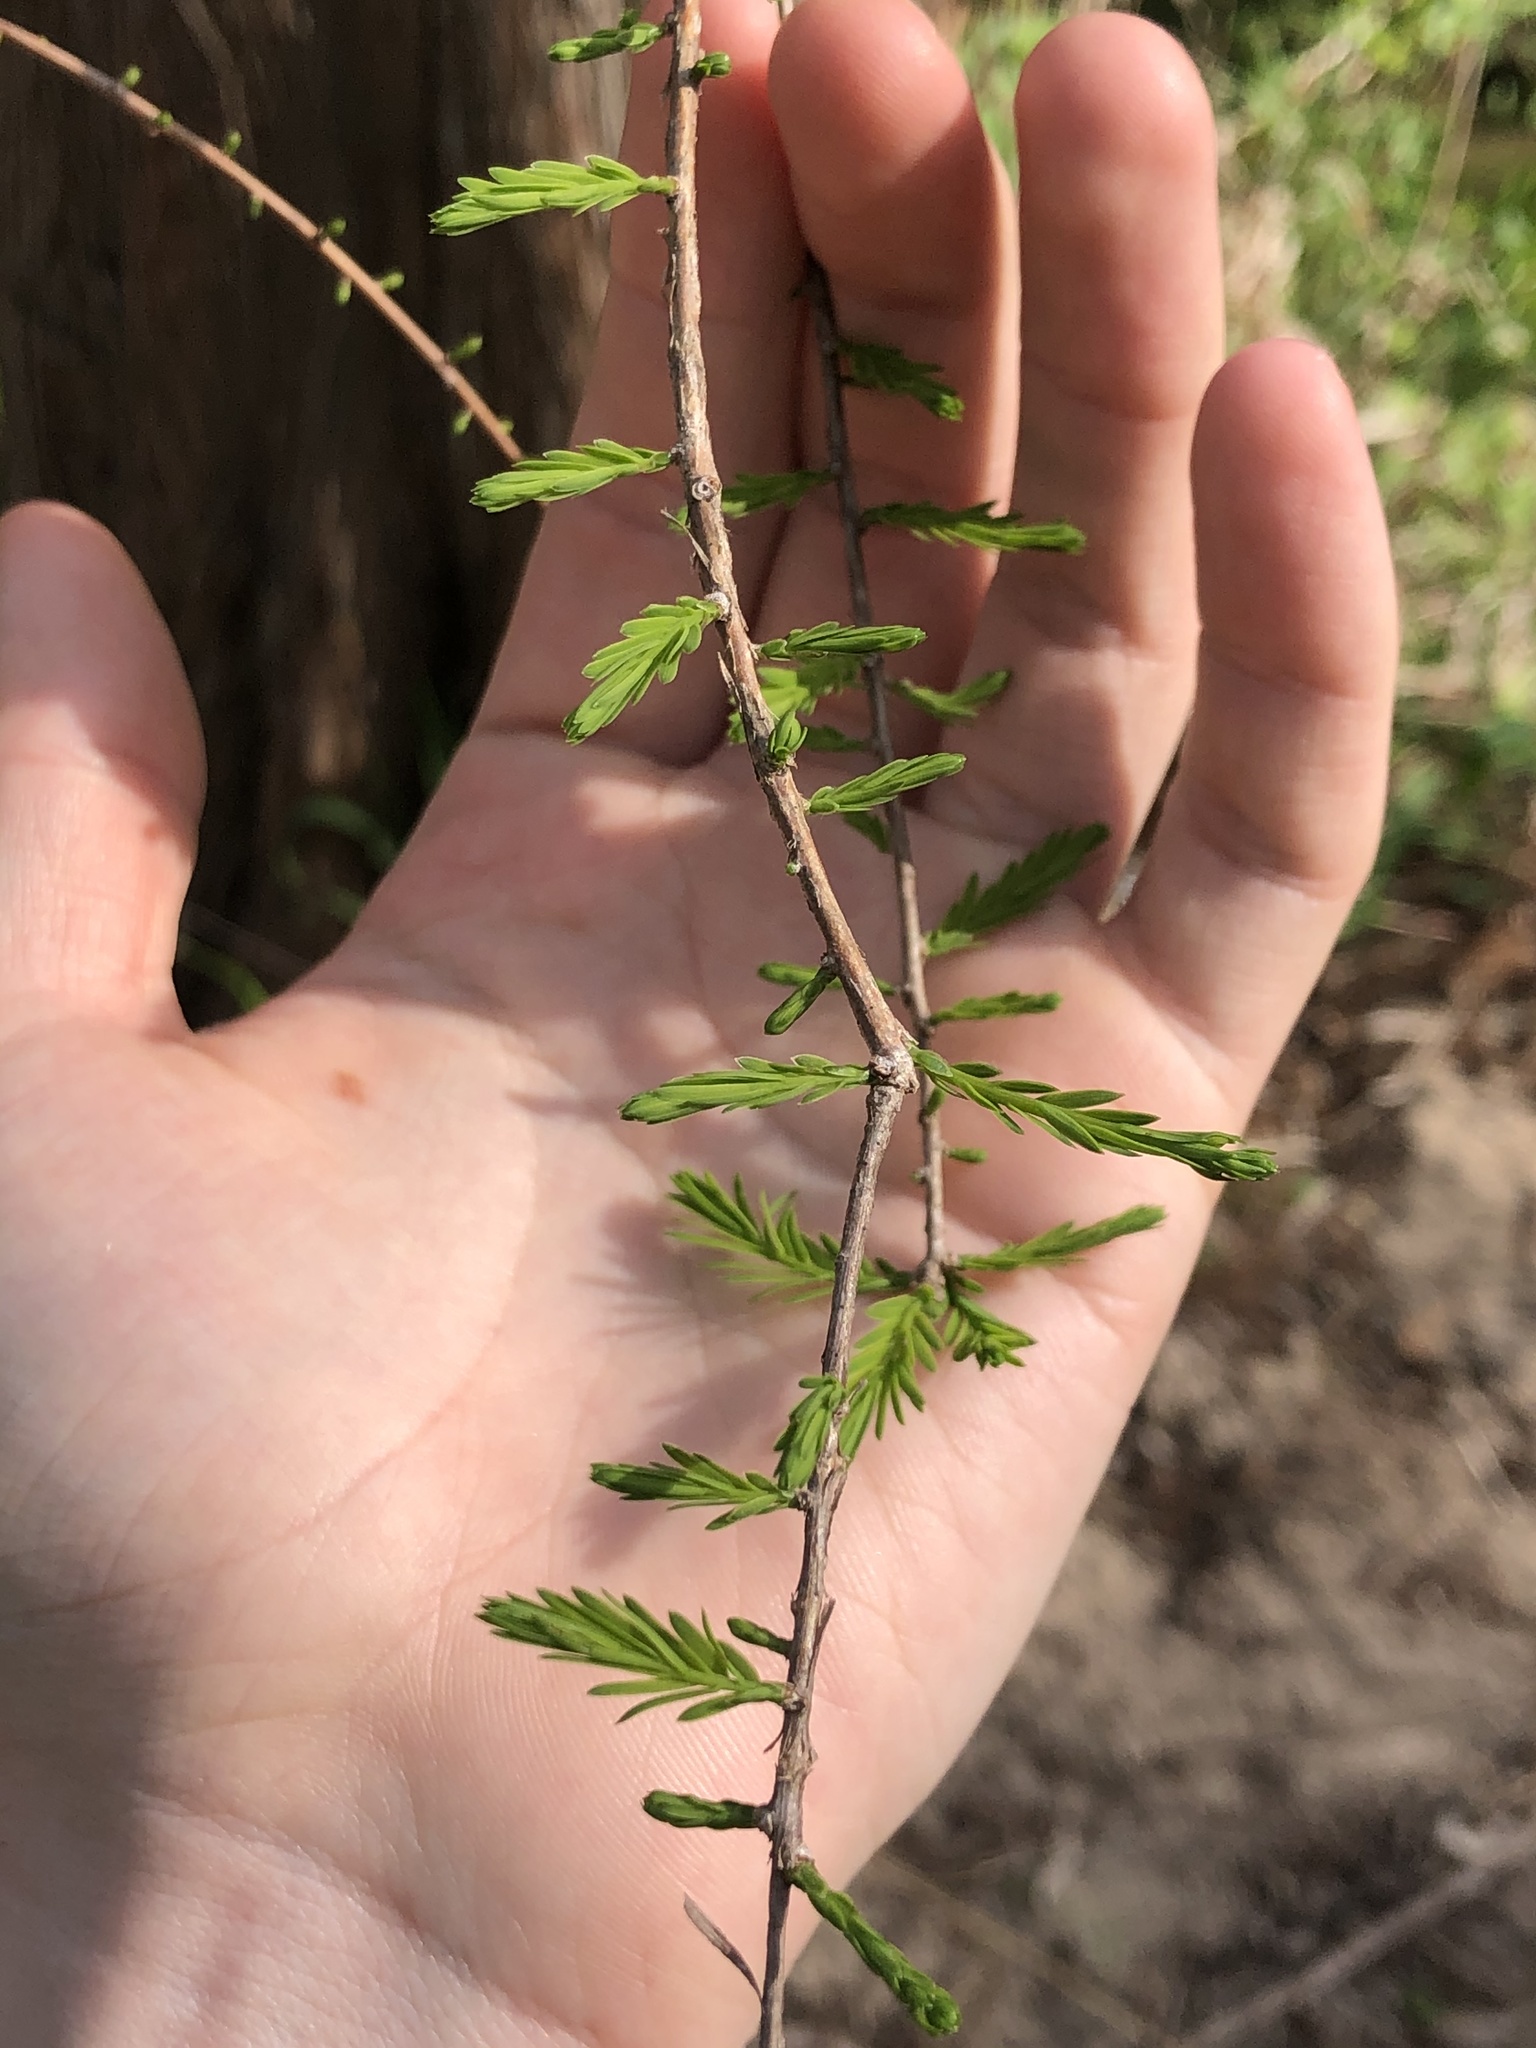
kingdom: Plantae
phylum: Tracheophyta
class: Pinopsida
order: Pinales
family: Cupressaceae
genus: Taxodium
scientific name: Taxodium distichum
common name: Bald cypress
